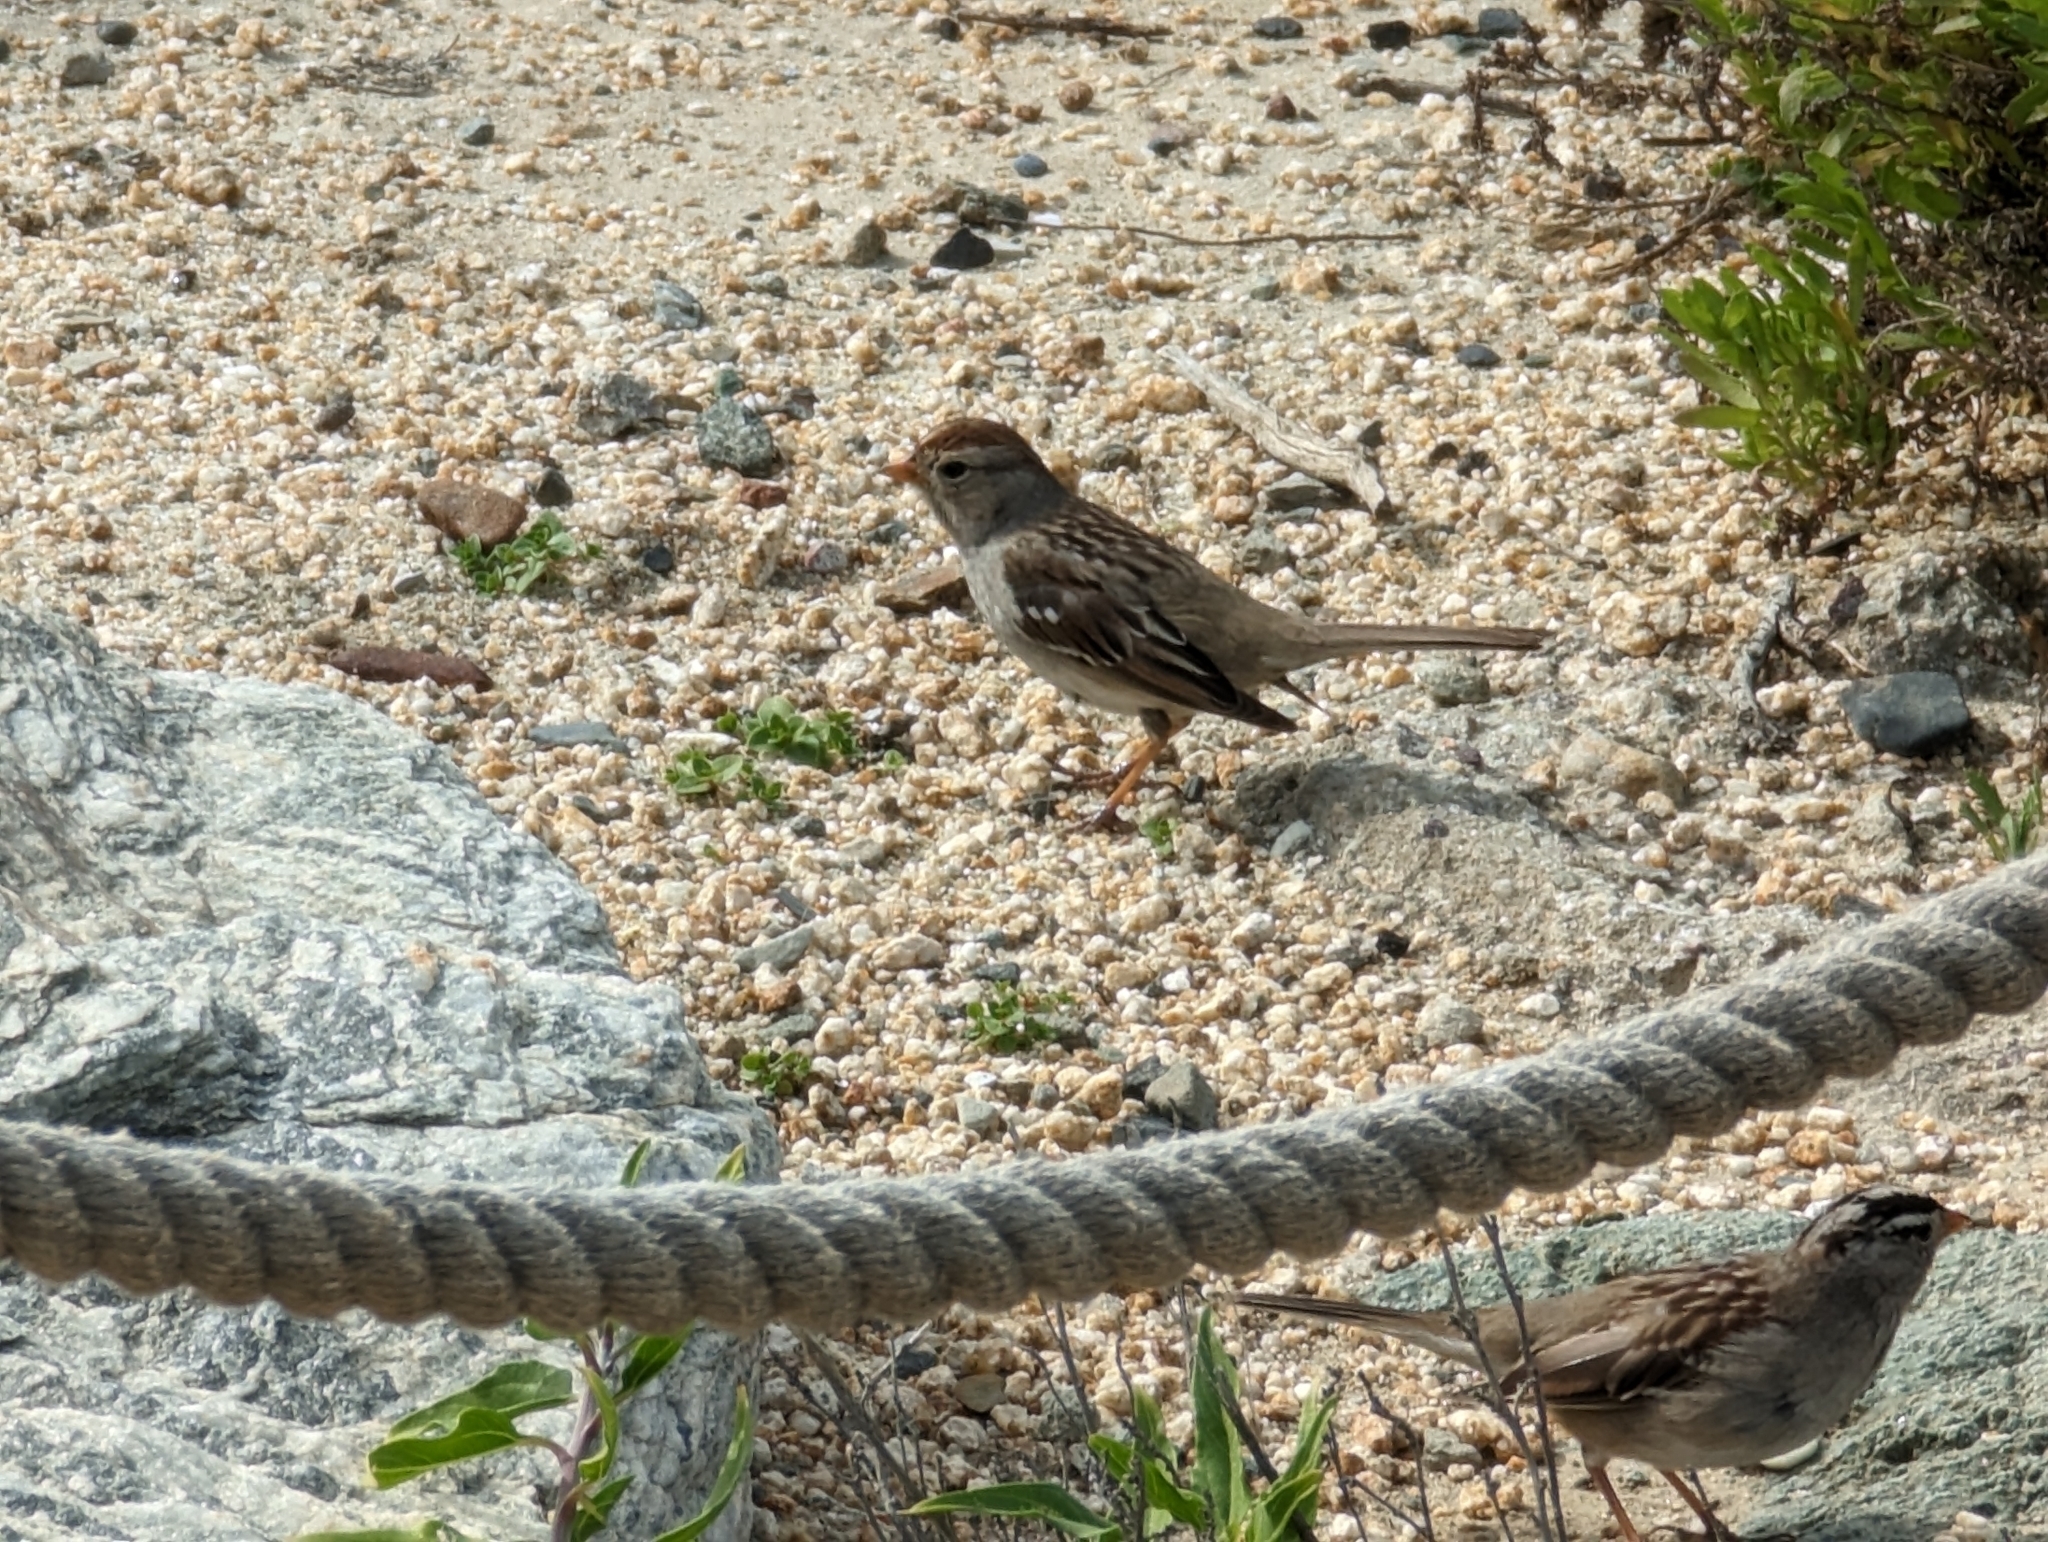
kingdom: Animalia
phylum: Chordata
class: Aves
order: Passeriformes
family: Passerellidae
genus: Zonotrichia
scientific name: Zonotrichia leucophrys
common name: White-crowned sparrow
